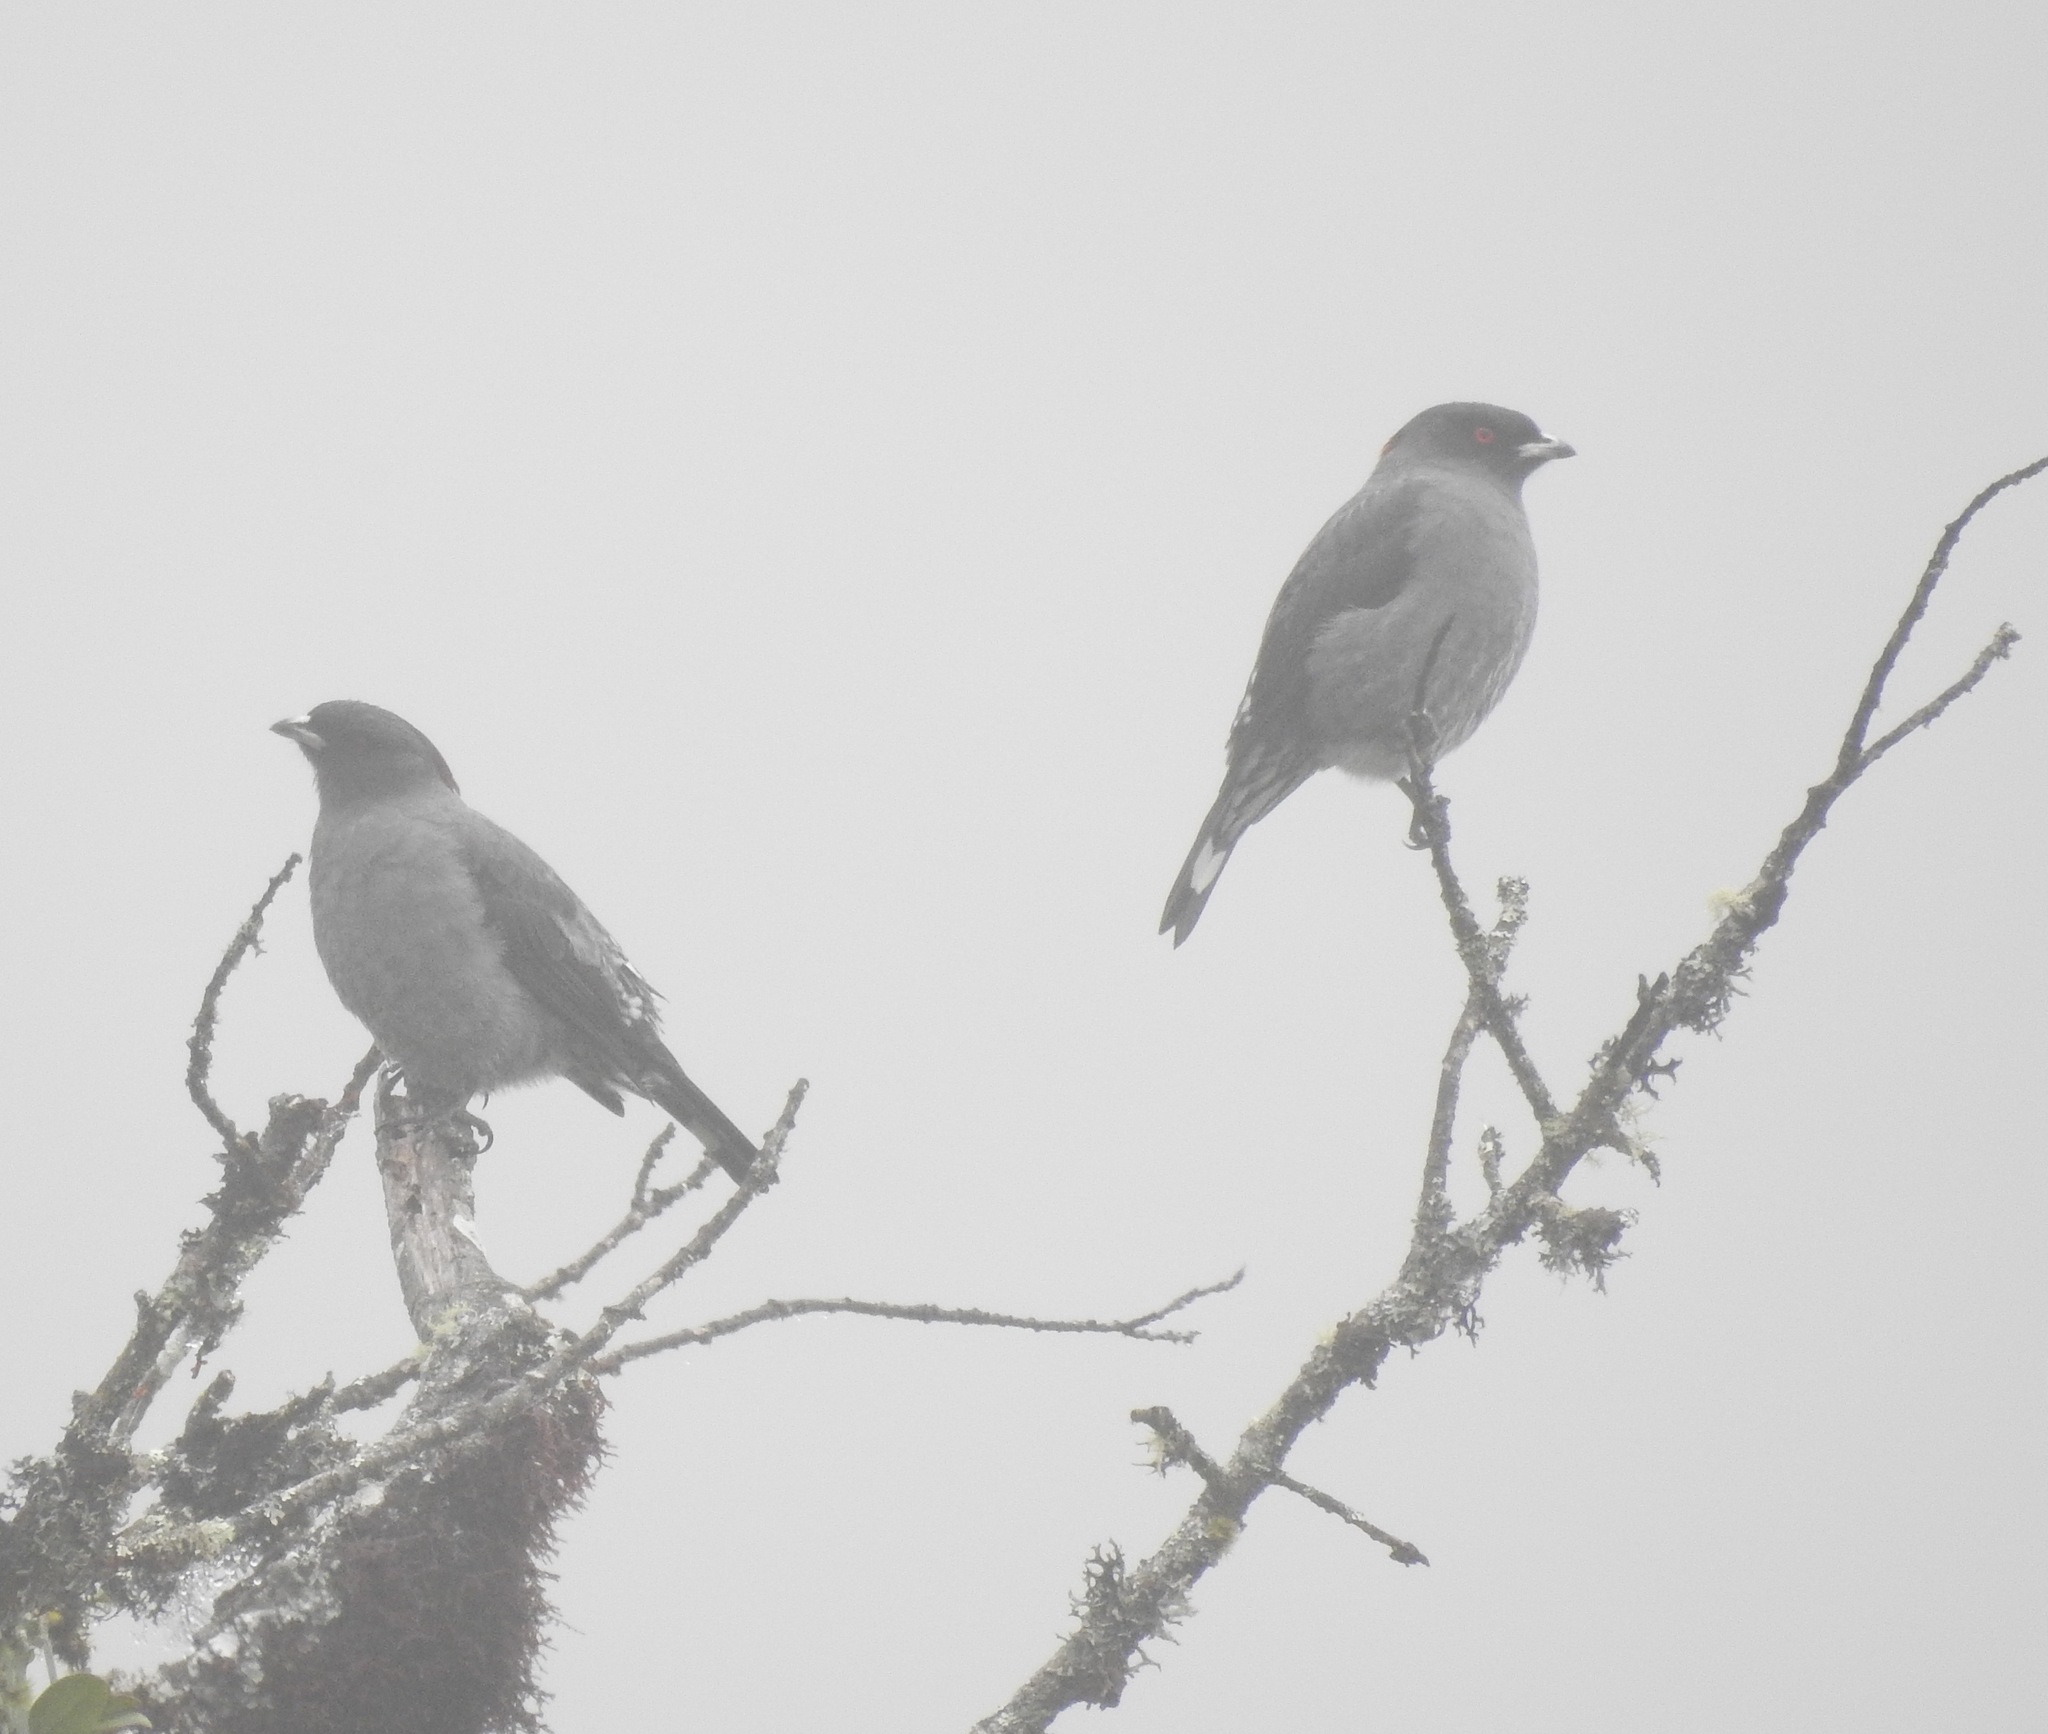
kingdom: Animalia
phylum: Chordata
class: Aves
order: Passeriformes
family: Cotingidae
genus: Ampelion
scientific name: Ampelion rubrocristatus
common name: Red-crested cotinga
